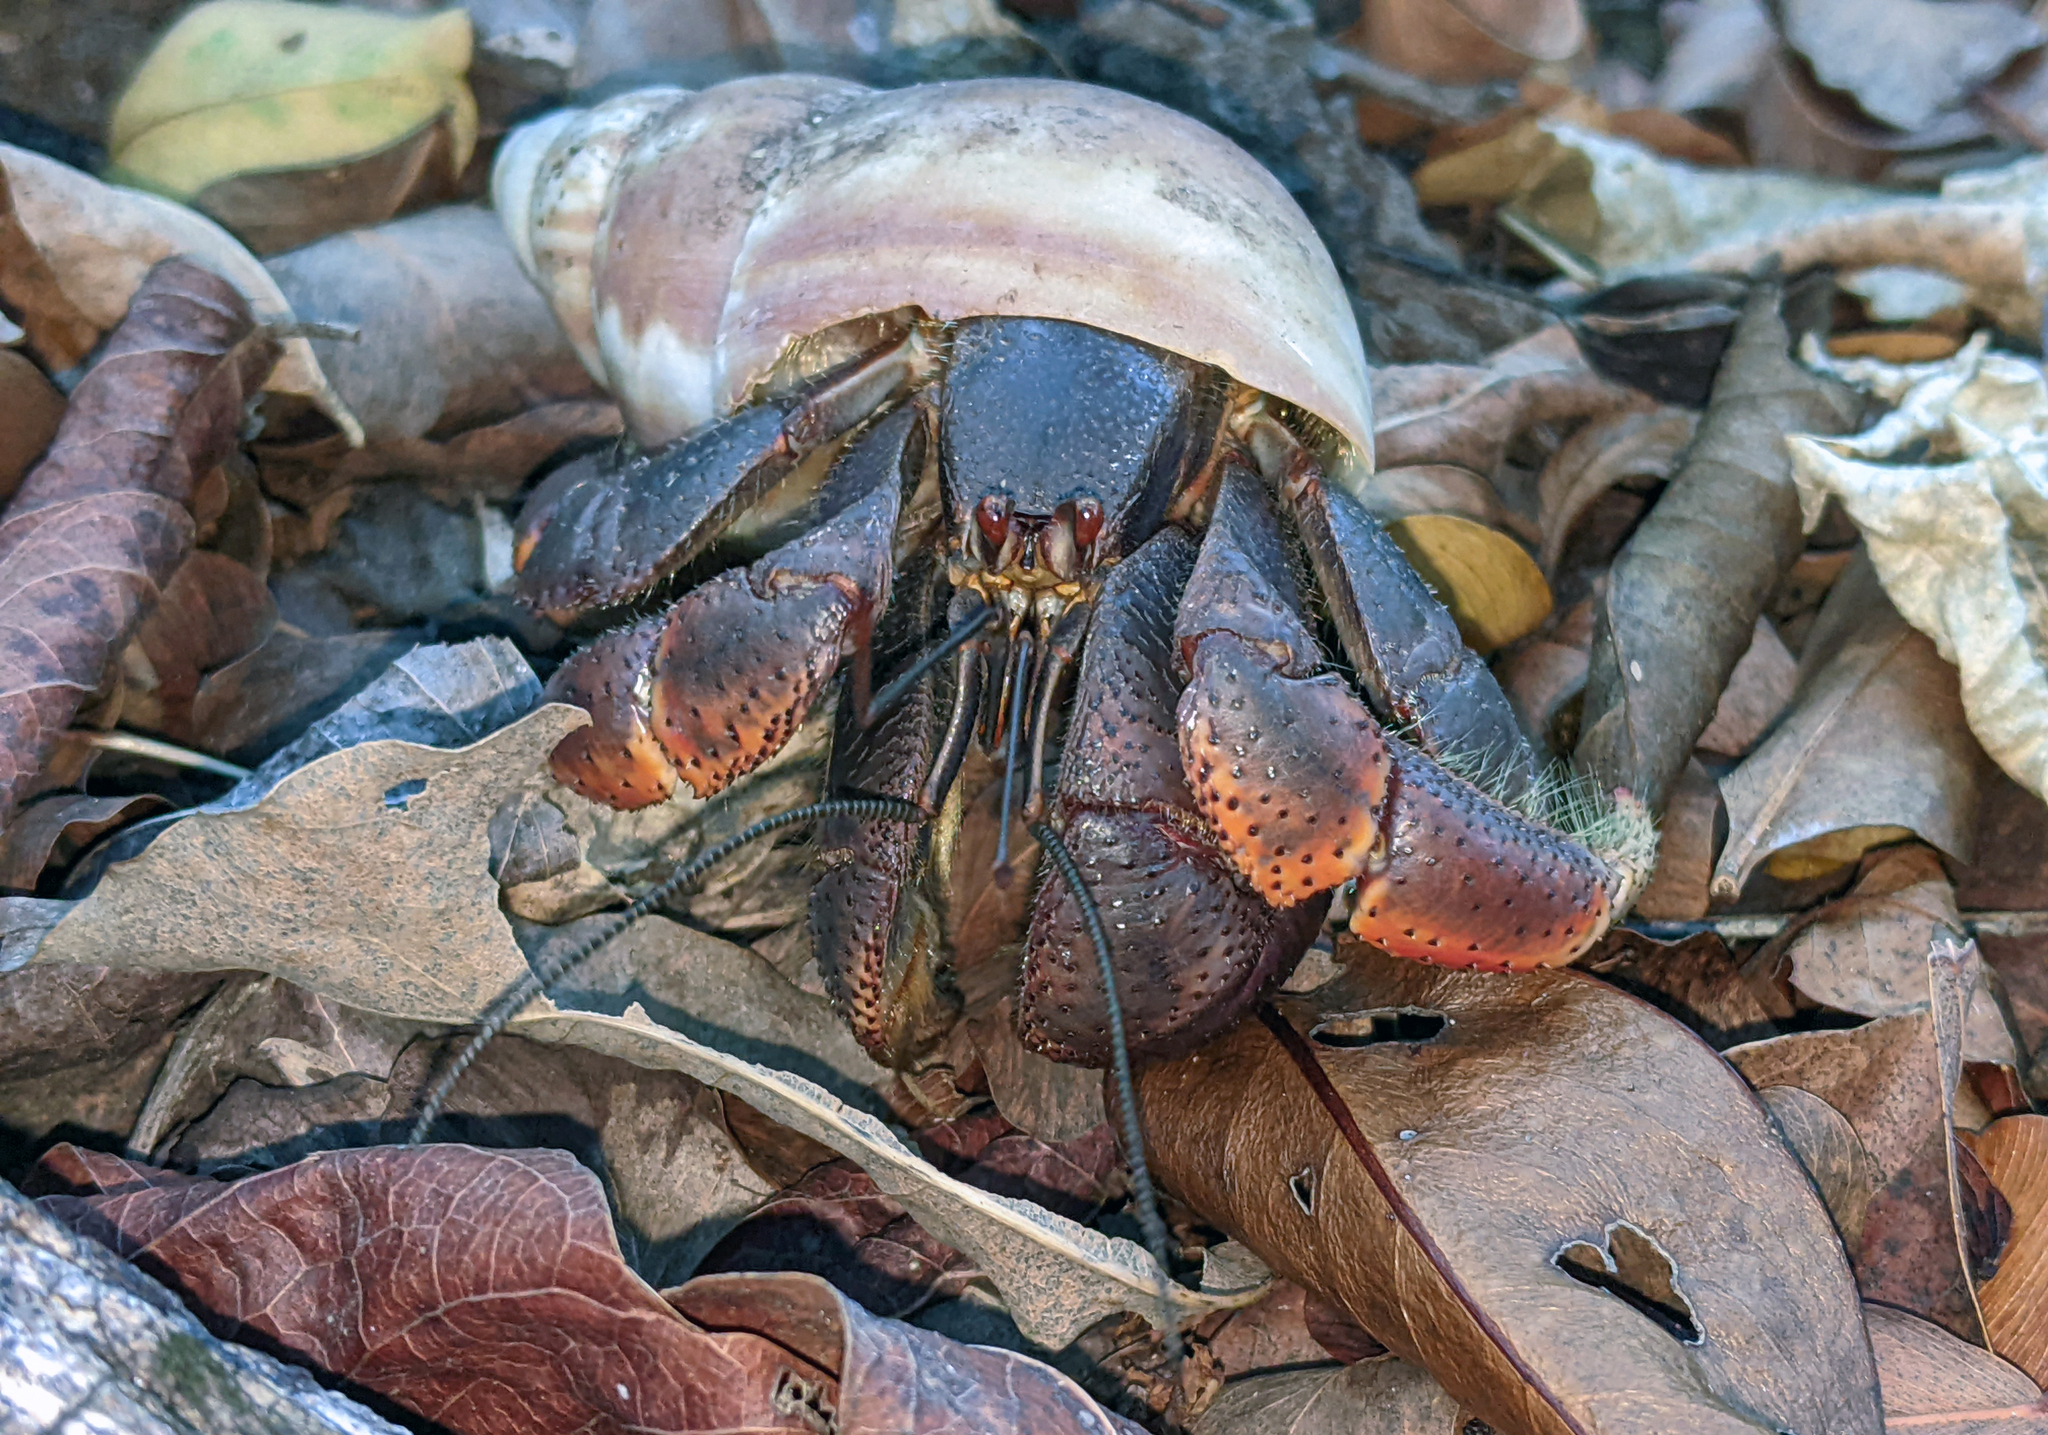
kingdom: Animalia
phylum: Arthropoda
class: Malacostraca
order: Decapoda
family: Coenobitidae
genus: Coenobita
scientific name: Coenobita clypeatus
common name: Caribbean hermit crab
